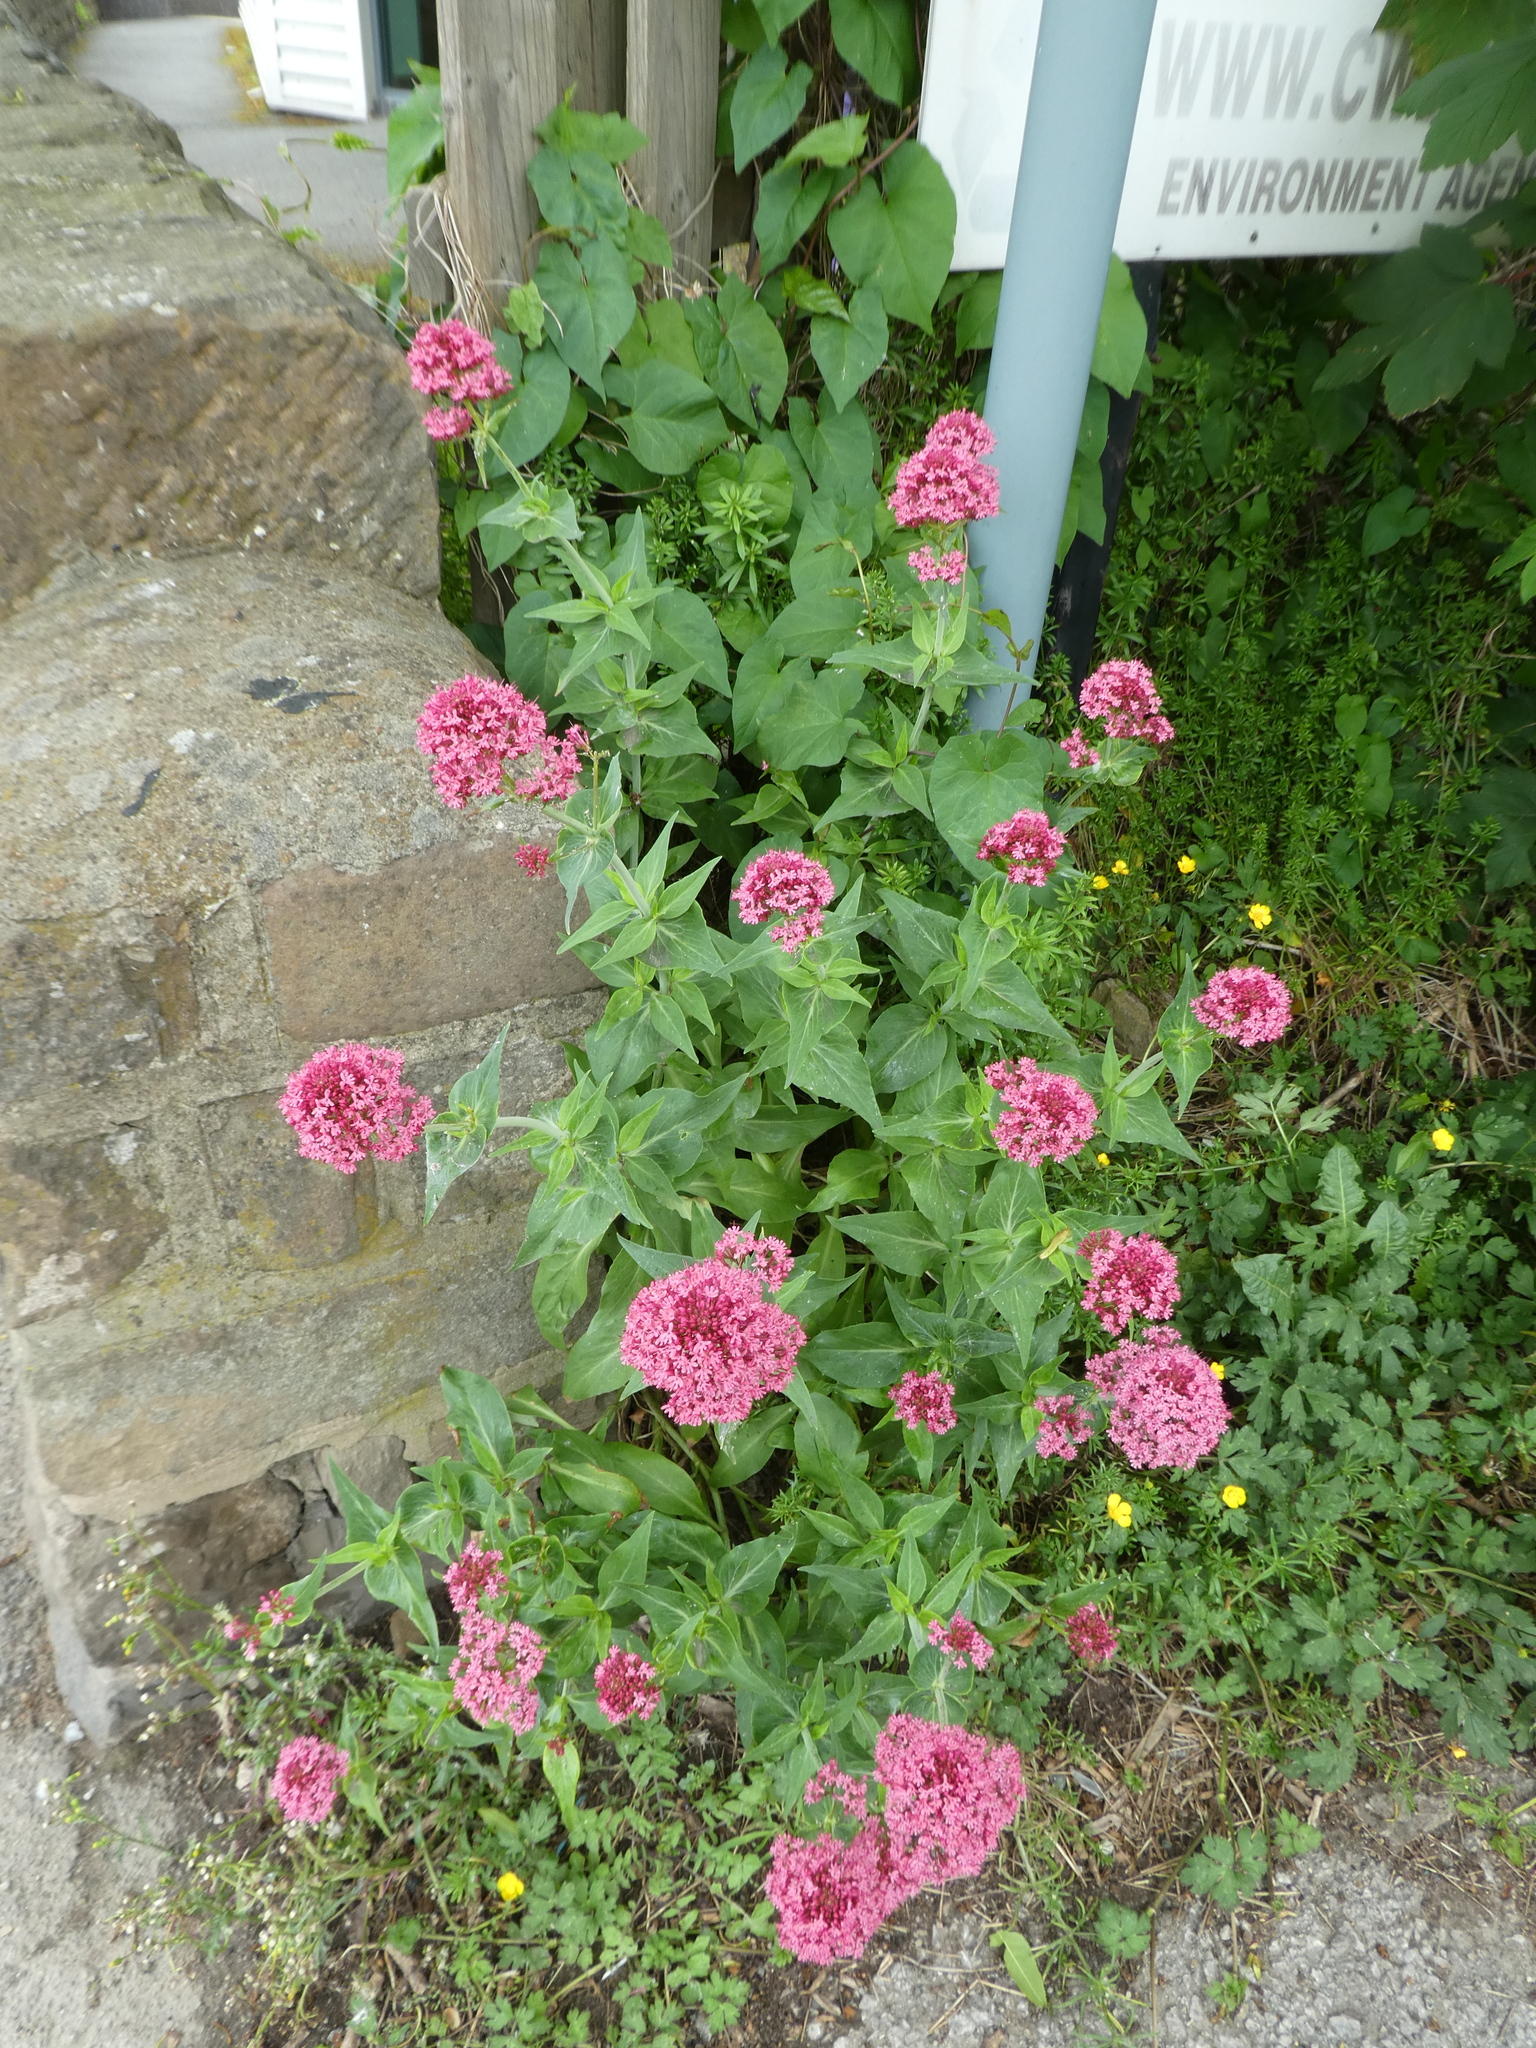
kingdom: Plantae
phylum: Tracheophyta
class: Magnoliopsida
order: Dipsacales
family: Caprifoliaceae
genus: Centranthus
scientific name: Centranthus ruber
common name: Red valerian
